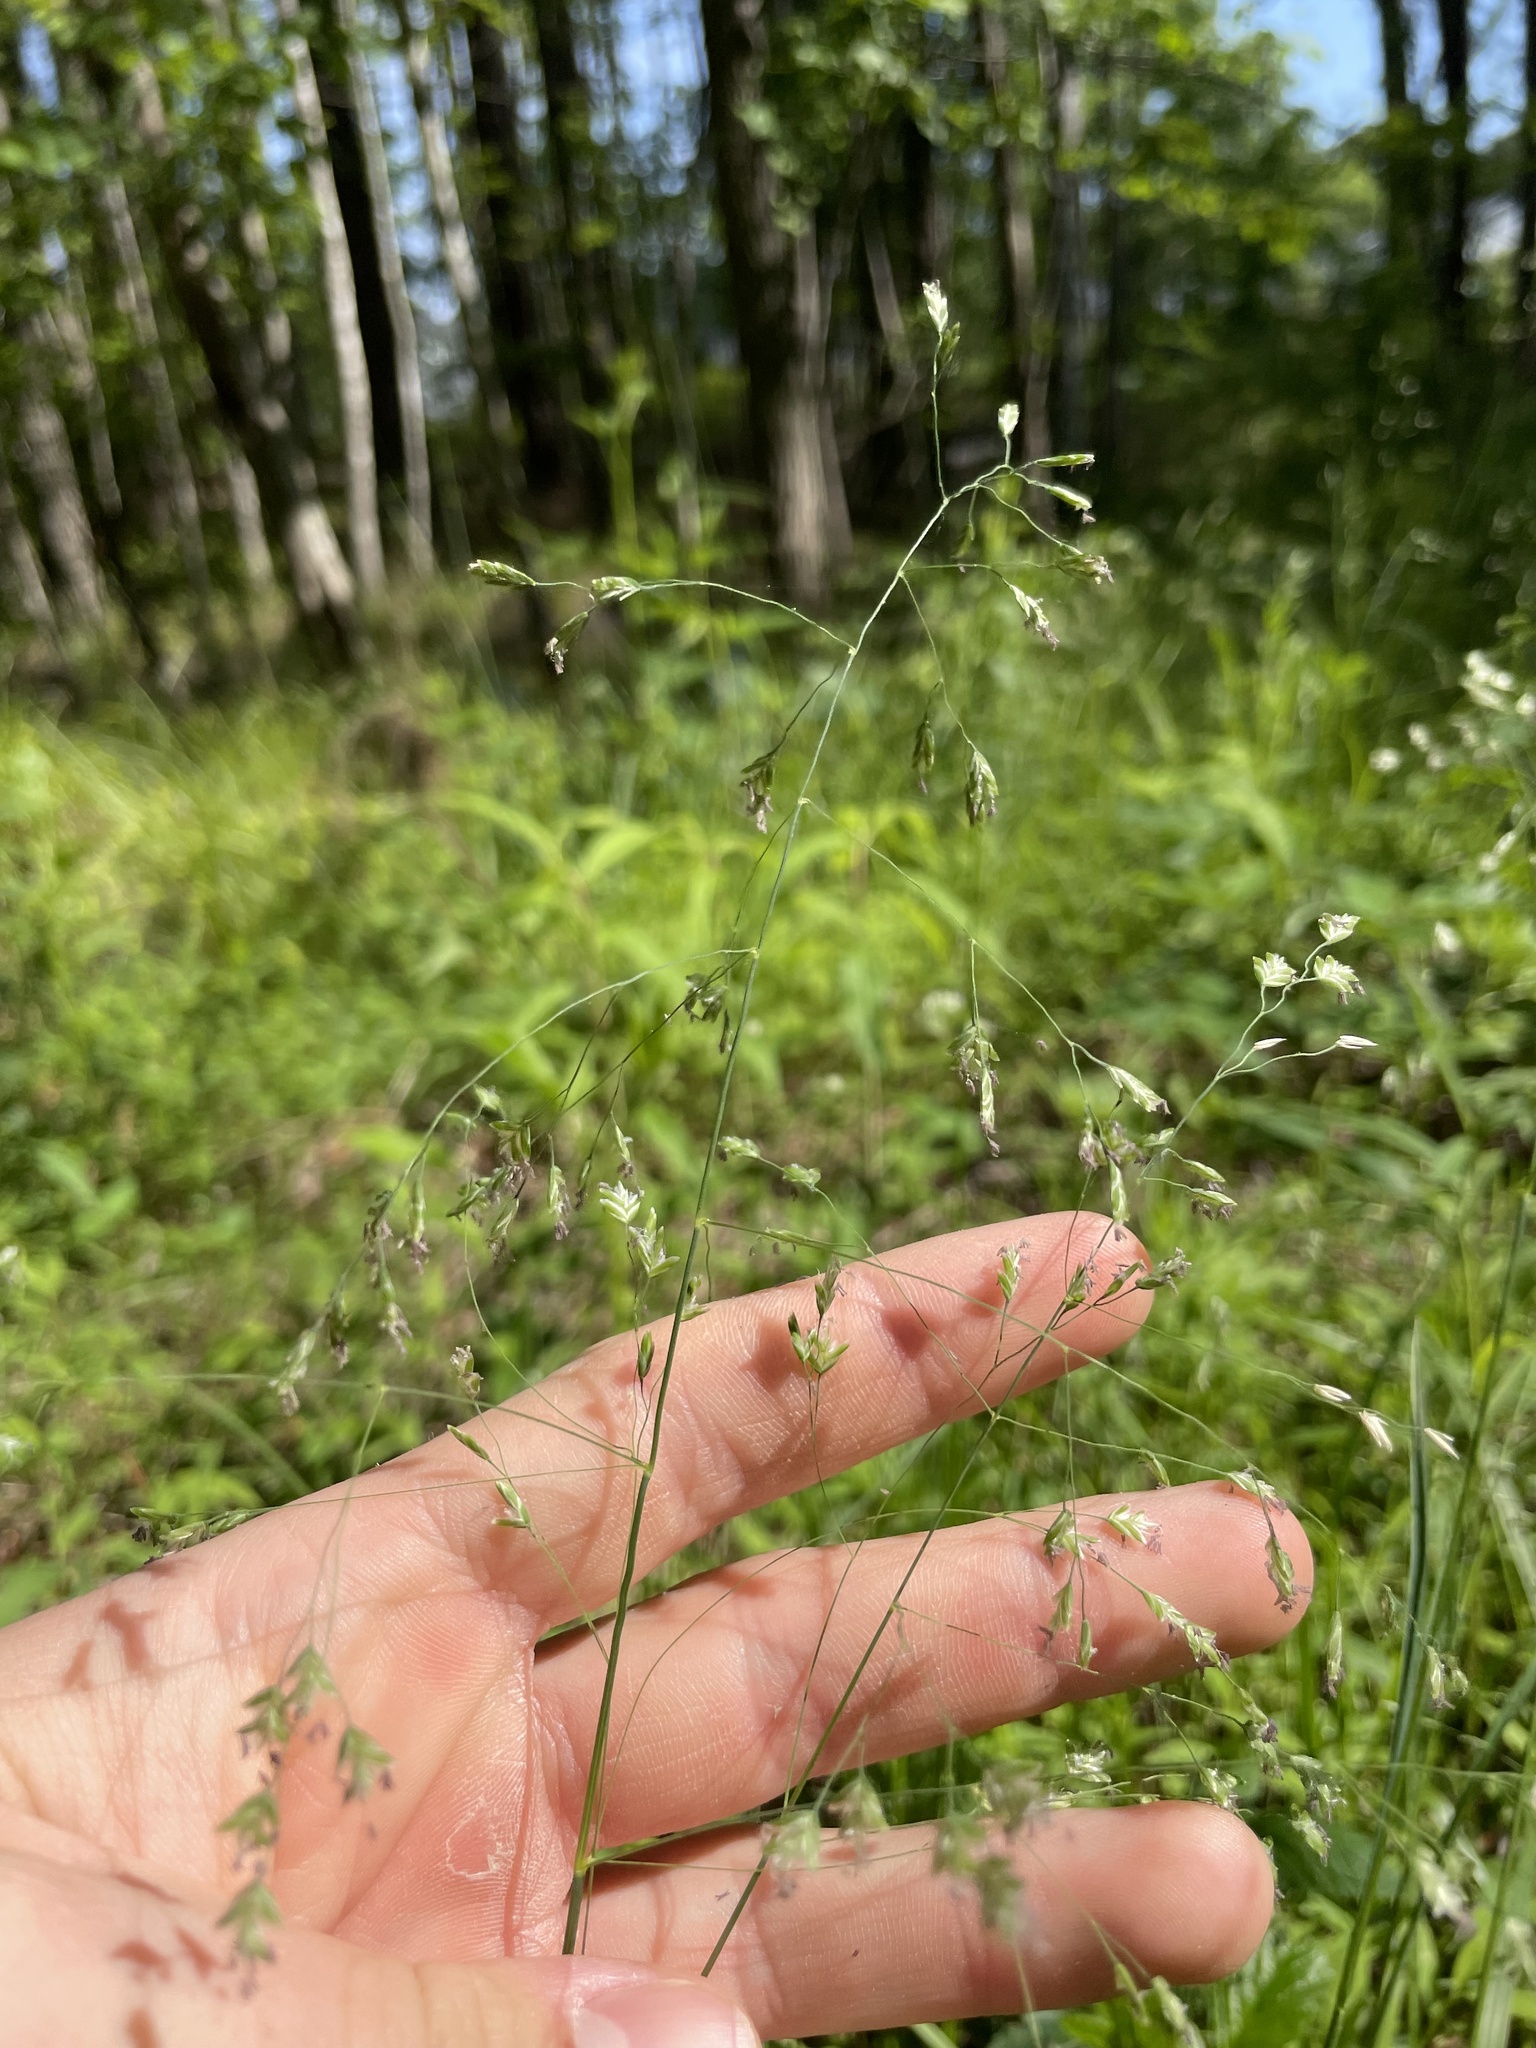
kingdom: Plantae
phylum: Tracheophyta
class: Liliopsida
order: Poales
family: Poaceae
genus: Poa
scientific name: Poa sylvestris
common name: North american woodland bluegrass
